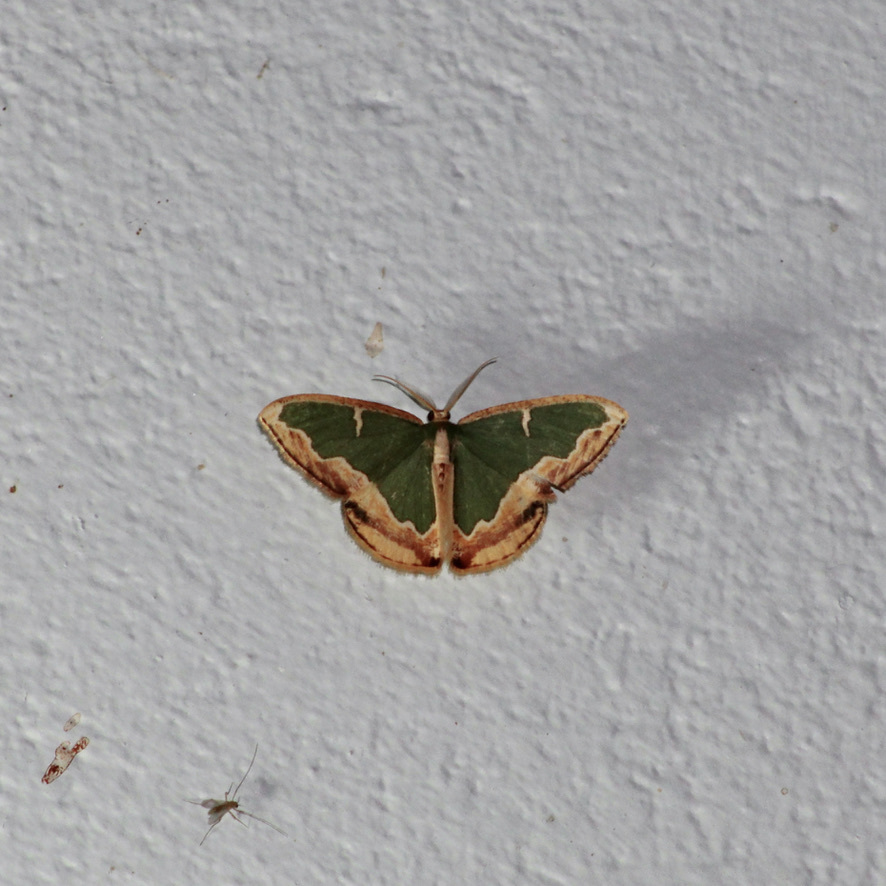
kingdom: Animalia
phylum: Arthropoda
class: Insecta
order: Lepidoptera
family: Geometridae
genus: Oospila
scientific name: Oospila venezuelata
